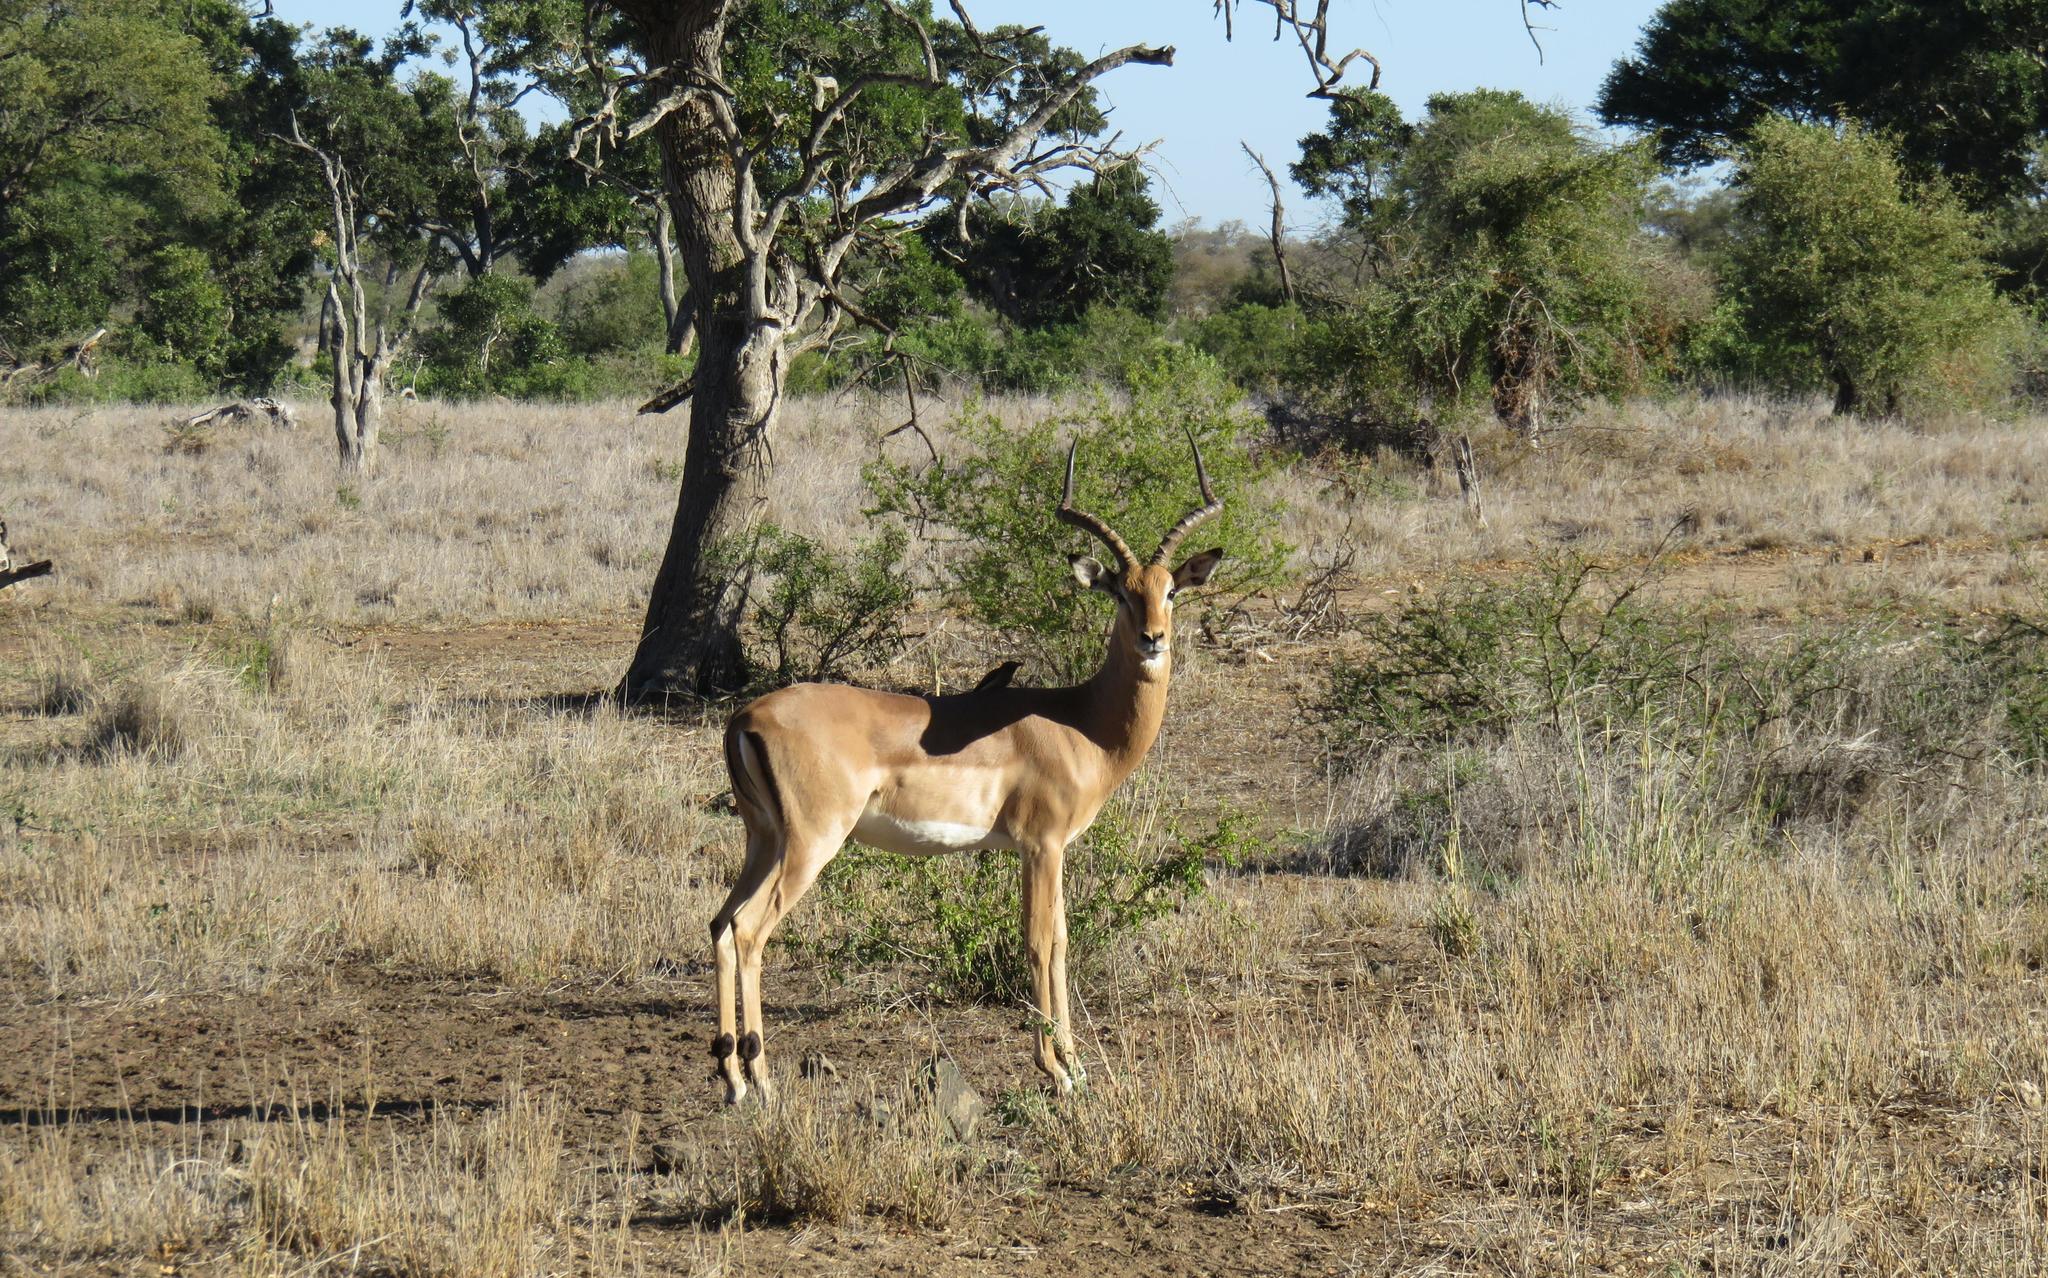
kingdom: Animalia
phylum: Chordata
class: Mammalia
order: Artiodactyla
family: Bovidae
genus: Aepyceros
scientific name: Aepyceros melampus
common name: Impala
